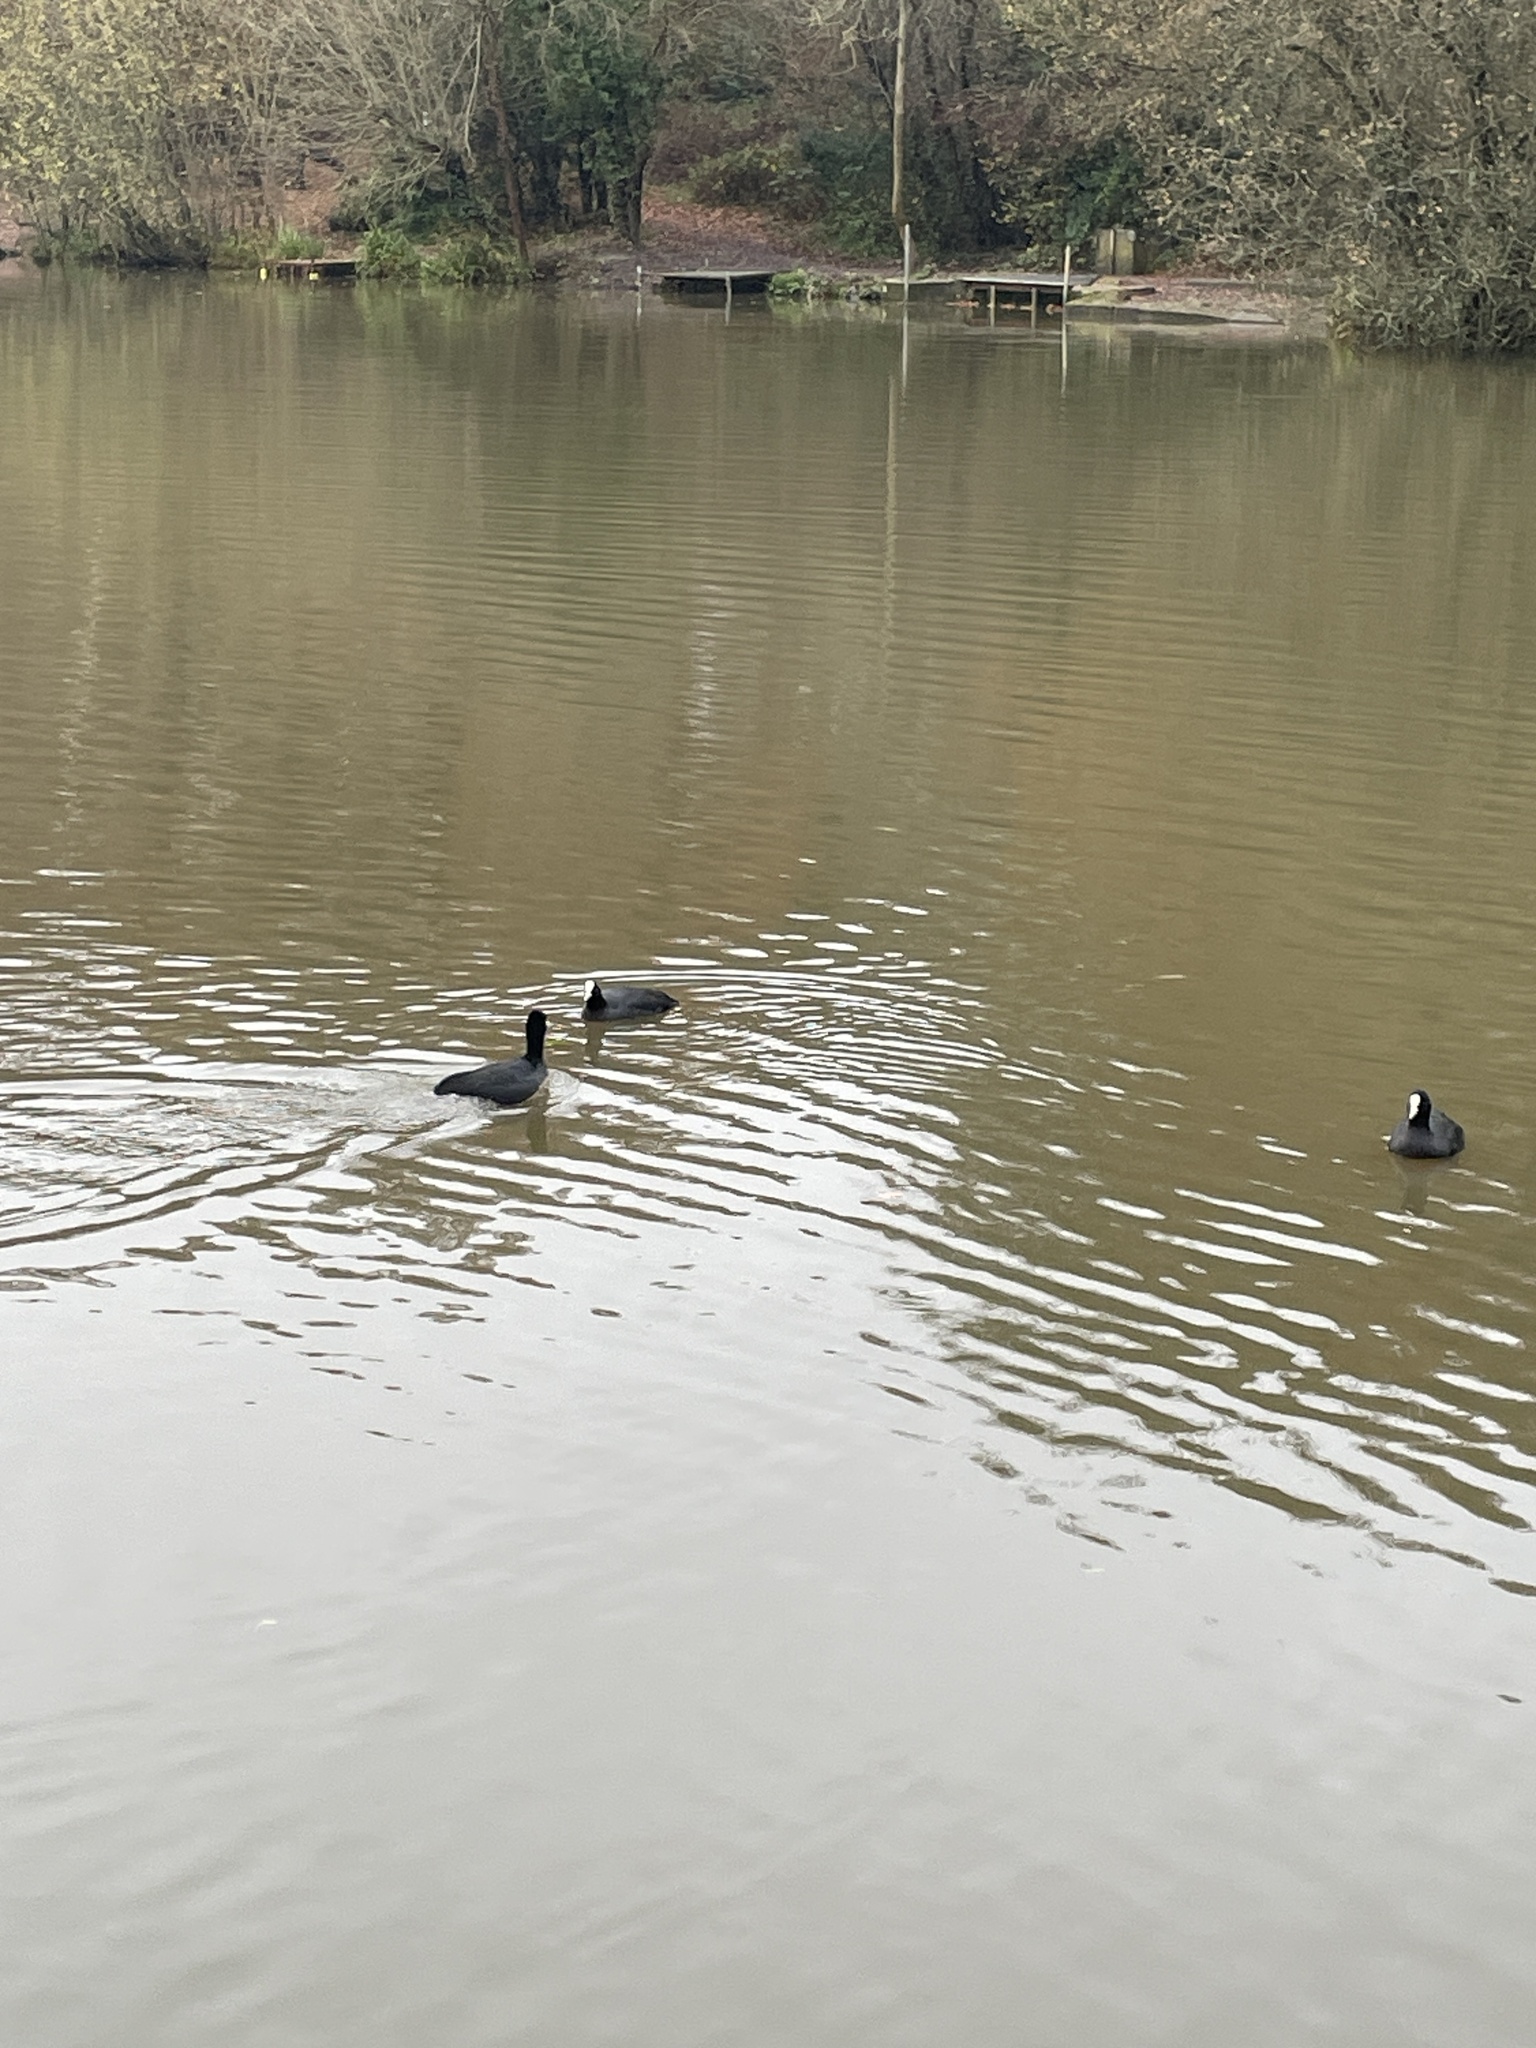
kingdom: Animalia
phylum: Chordata
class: Aves
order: Gruiformes
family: Rallidae
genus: Fulica
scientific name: Fulica atra
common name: Eurasian coot
